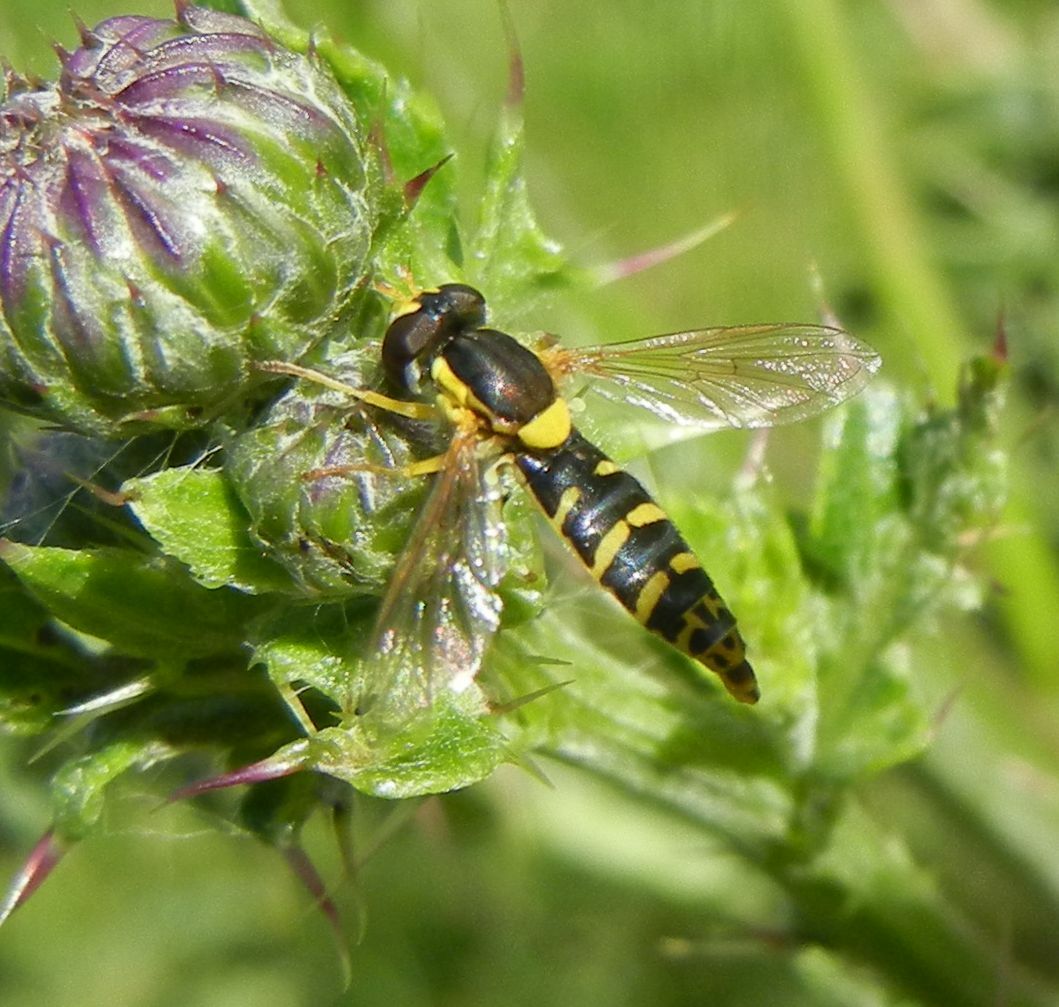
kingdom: Animalia
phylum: Arthropoda
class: Insecta
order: Diptera
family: Syrphidae
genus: Sphaerophoria
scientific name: Sphaerophoria
